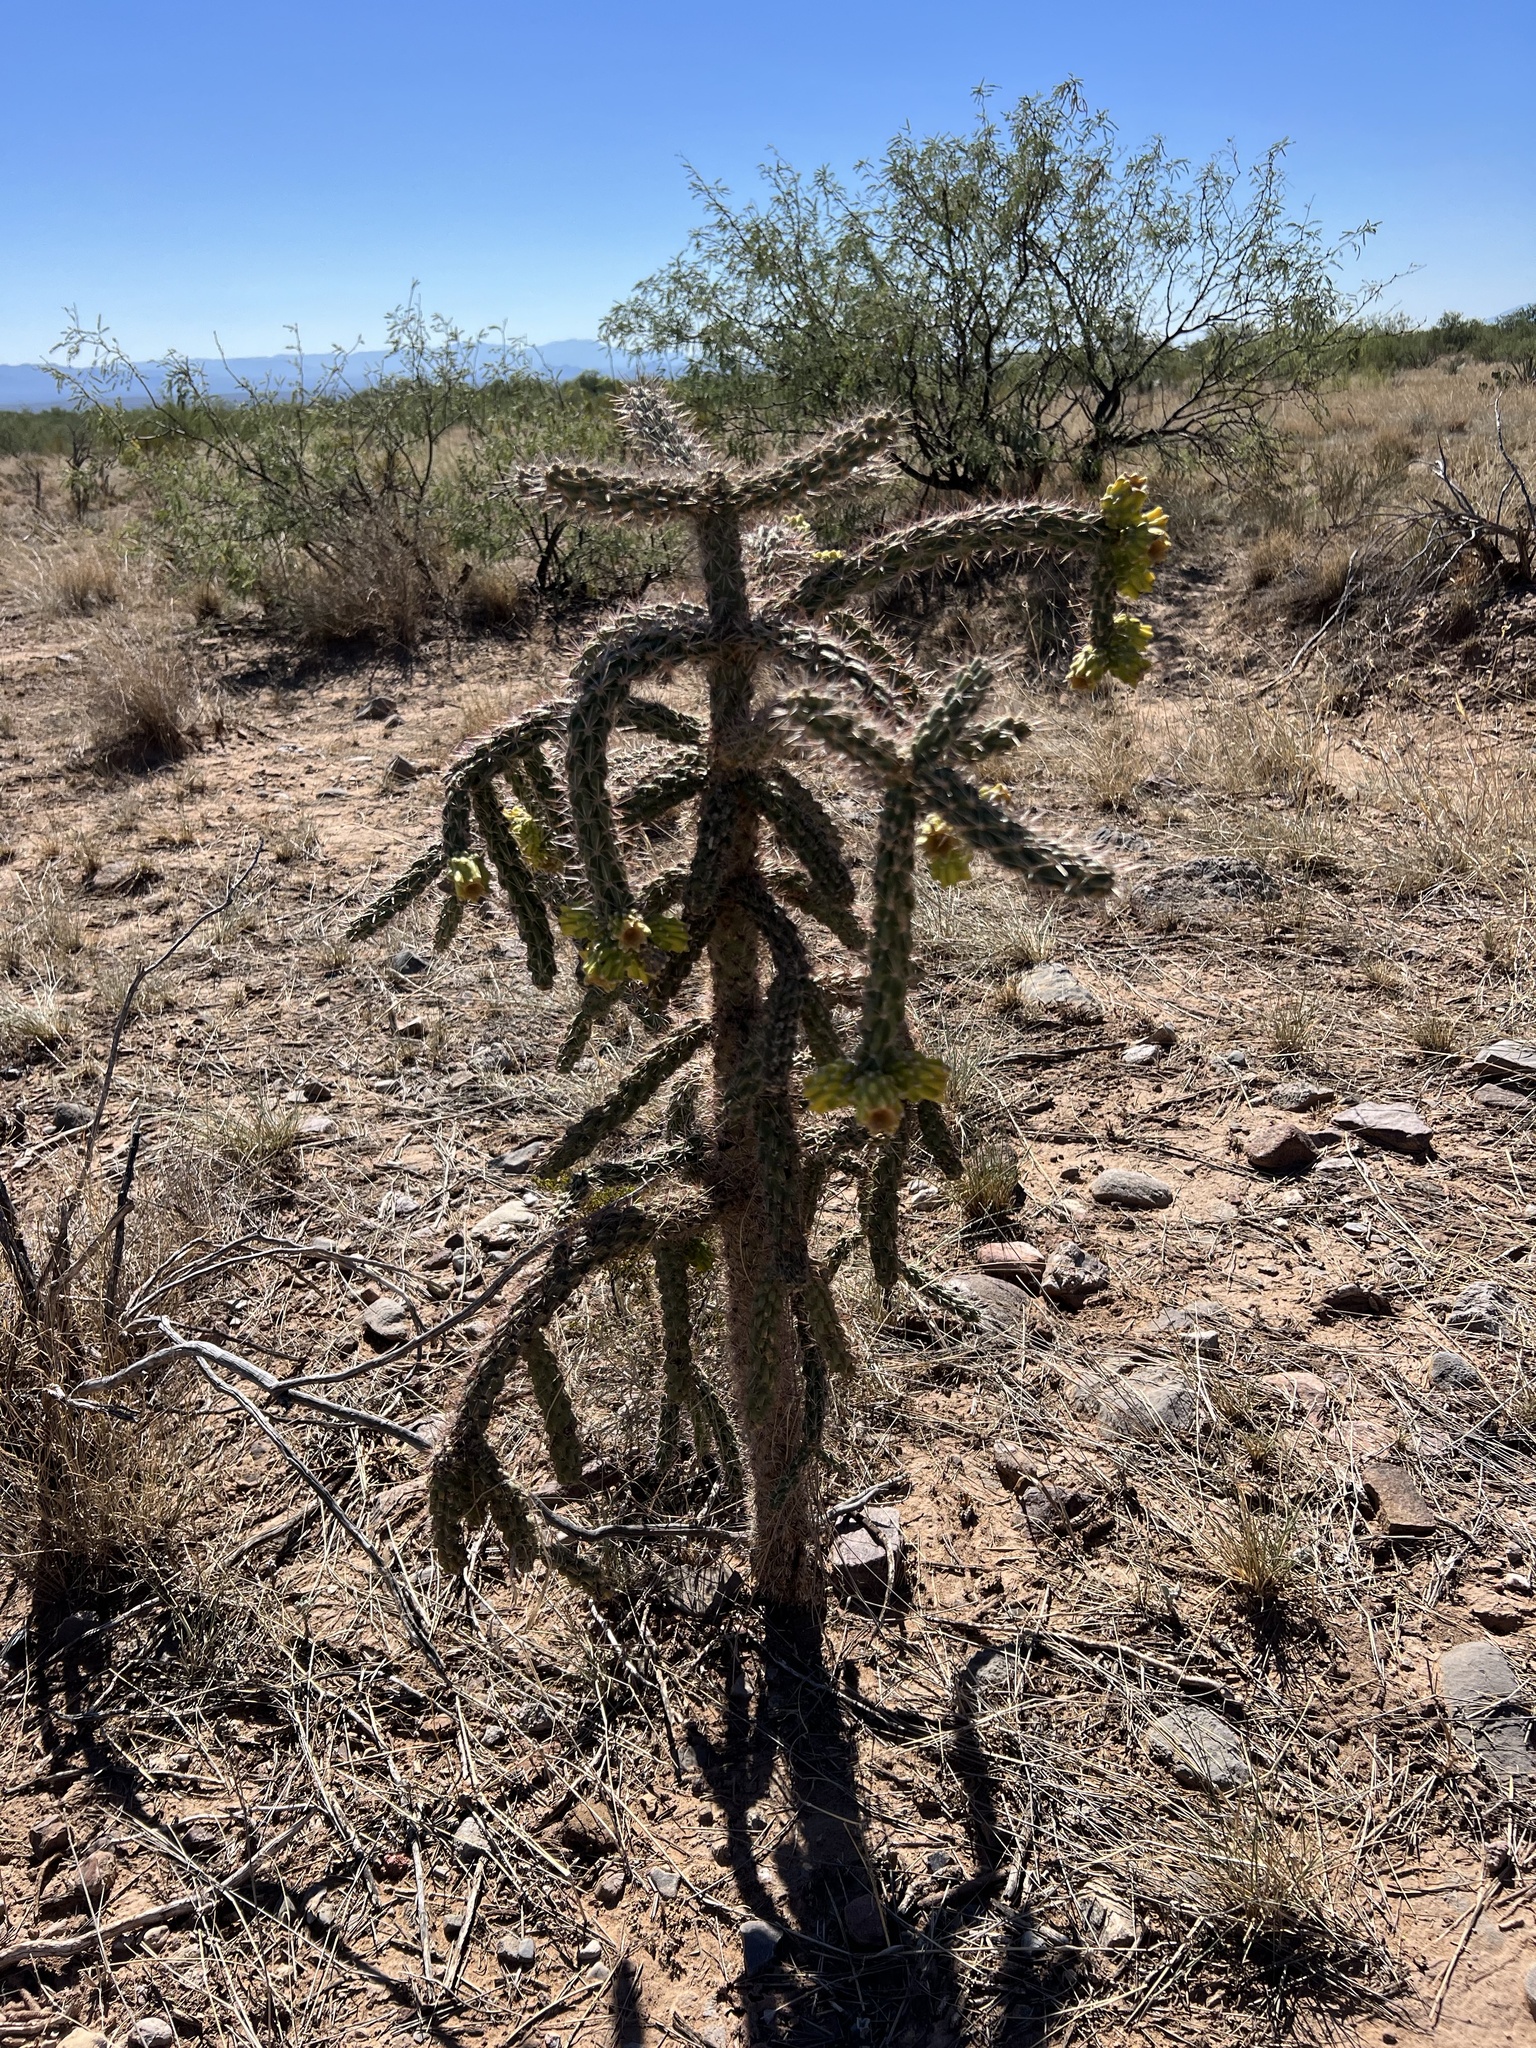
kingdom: Plantae
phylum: Tracheophyta
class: Magnoliopsida
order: Caryophyllales
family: Cactaceae
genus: Cylindropuntia
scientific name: Cylindropuntia imbricata
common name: Candelabrum cactus
